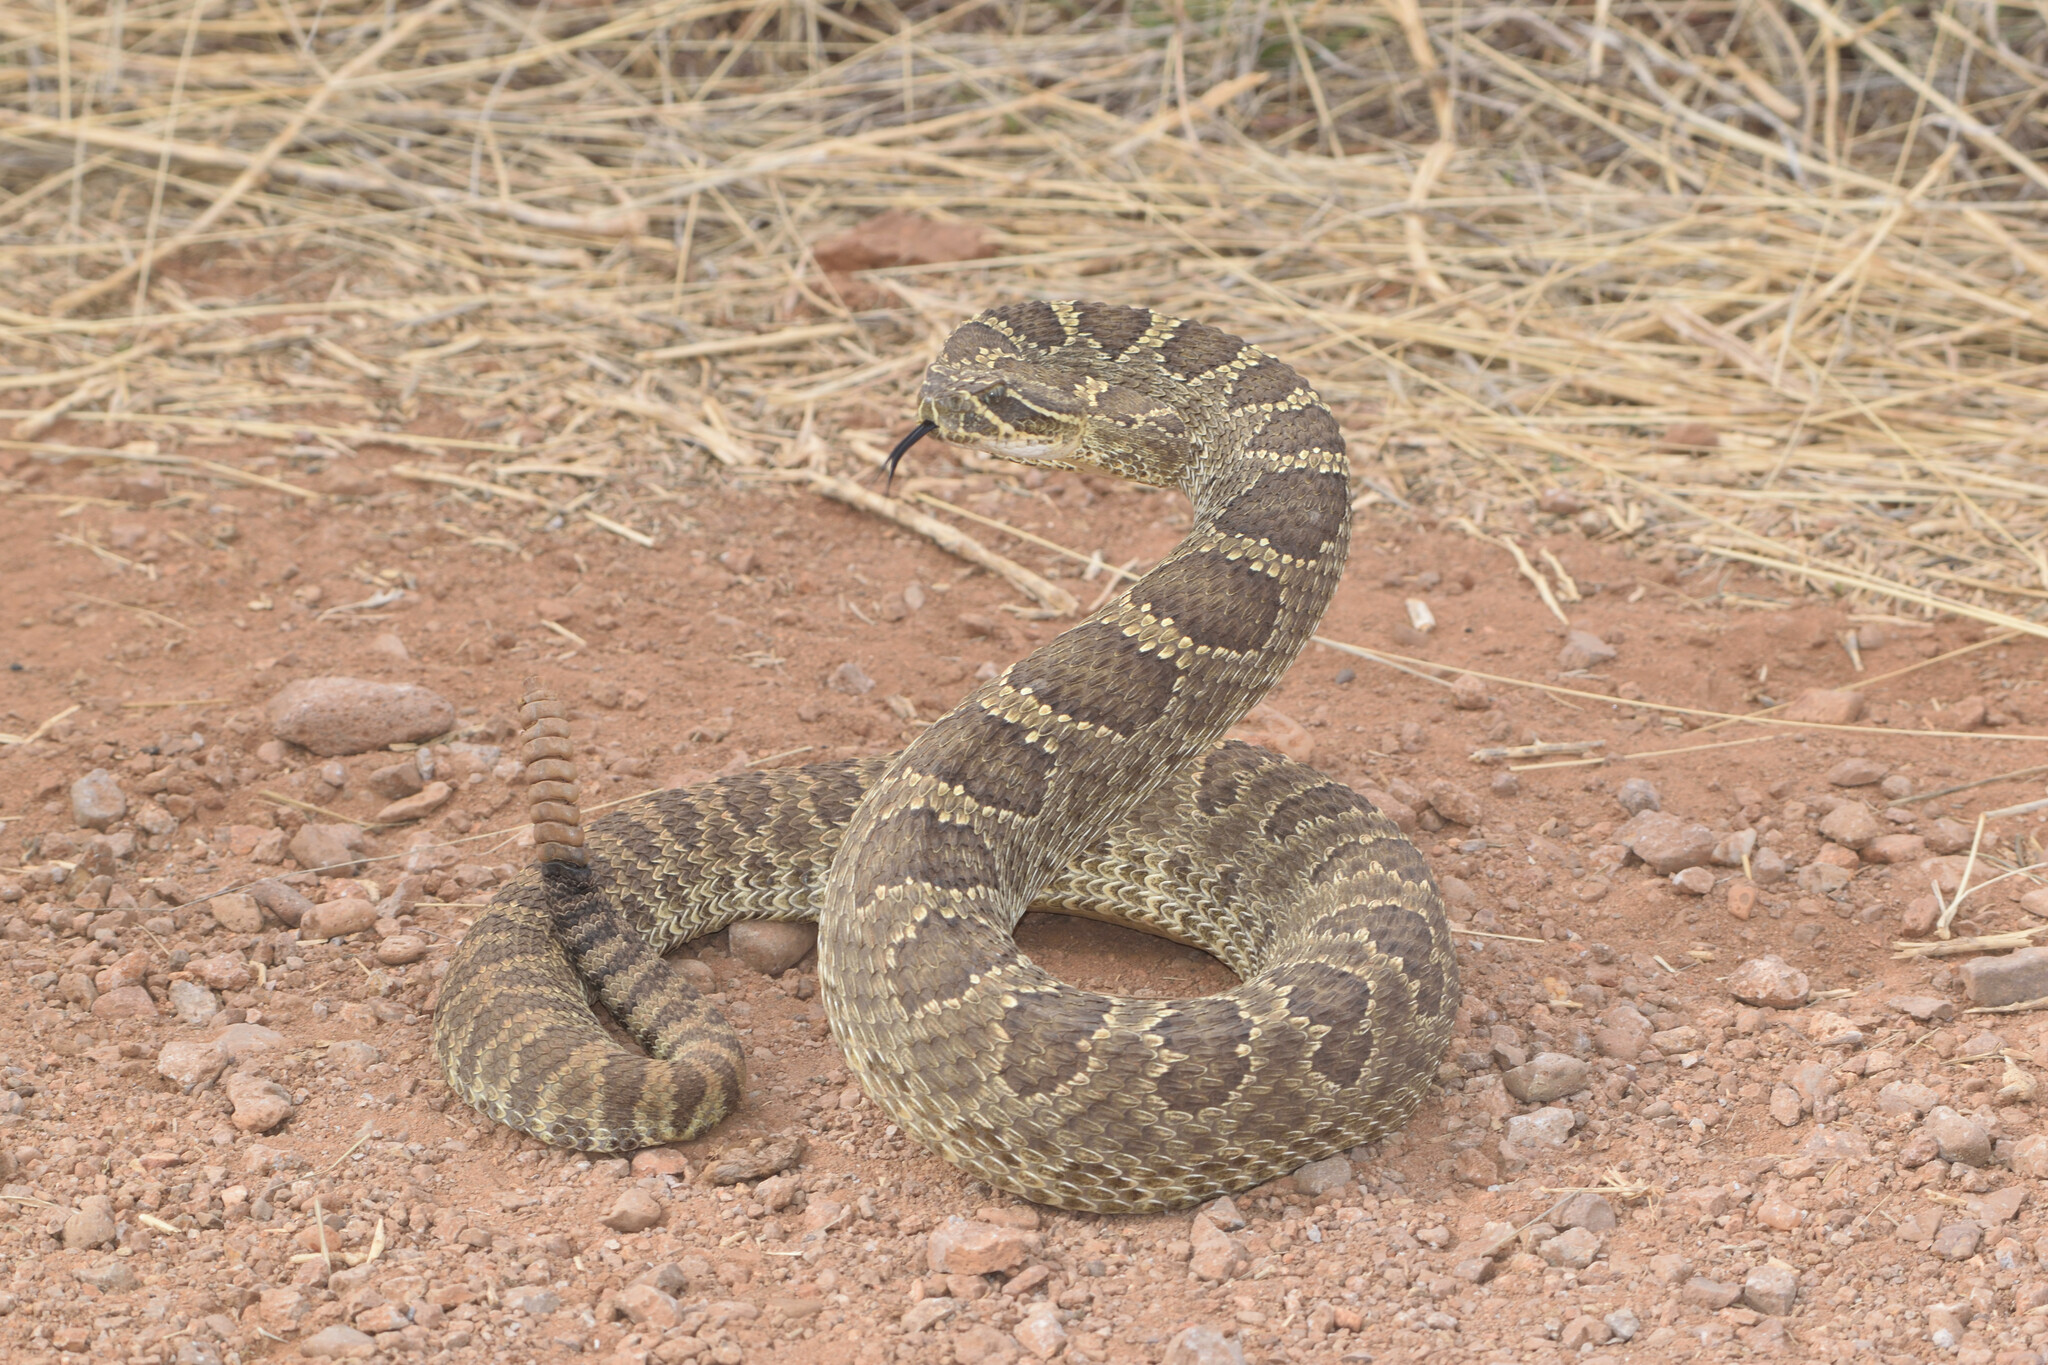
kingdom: Animalia
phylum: Chordata
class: Squamata
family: Viperidae
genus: Crotalus
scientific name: Crotalus viridis
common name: Prairie rattlesnake
